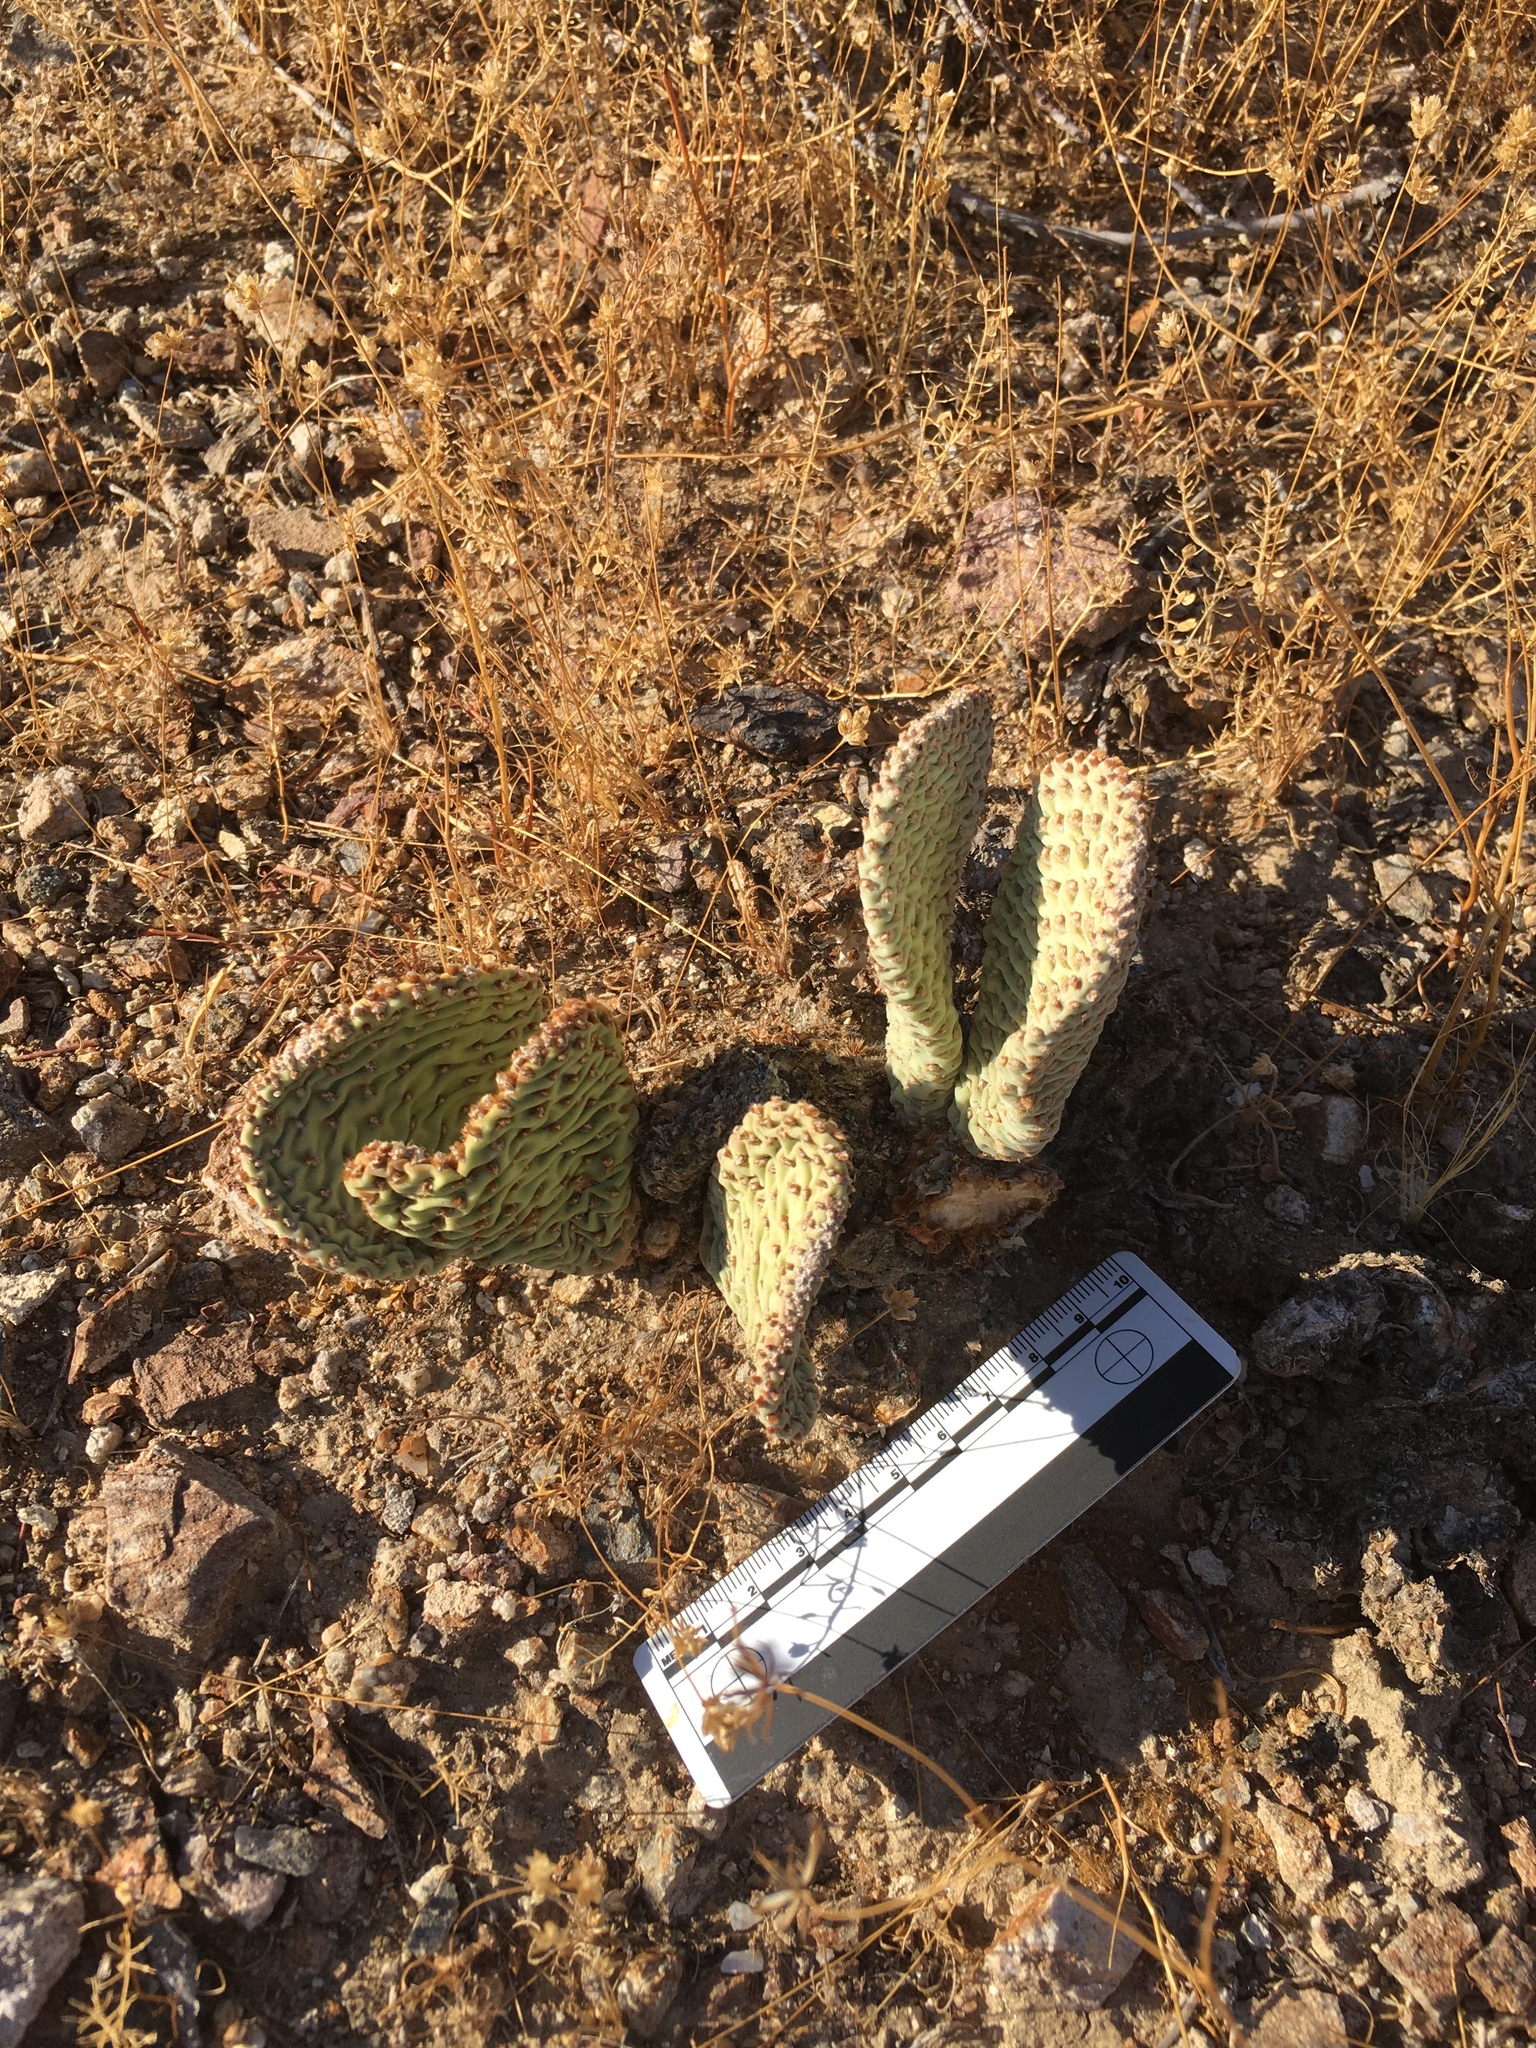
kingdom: Plantae
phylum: Tracheophyta
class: Magnoliopsida
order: Caryophyllales
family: Cactaceae
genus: Opuntia
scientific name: Opuntia basilaris
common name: Beavertail prickly-pear
